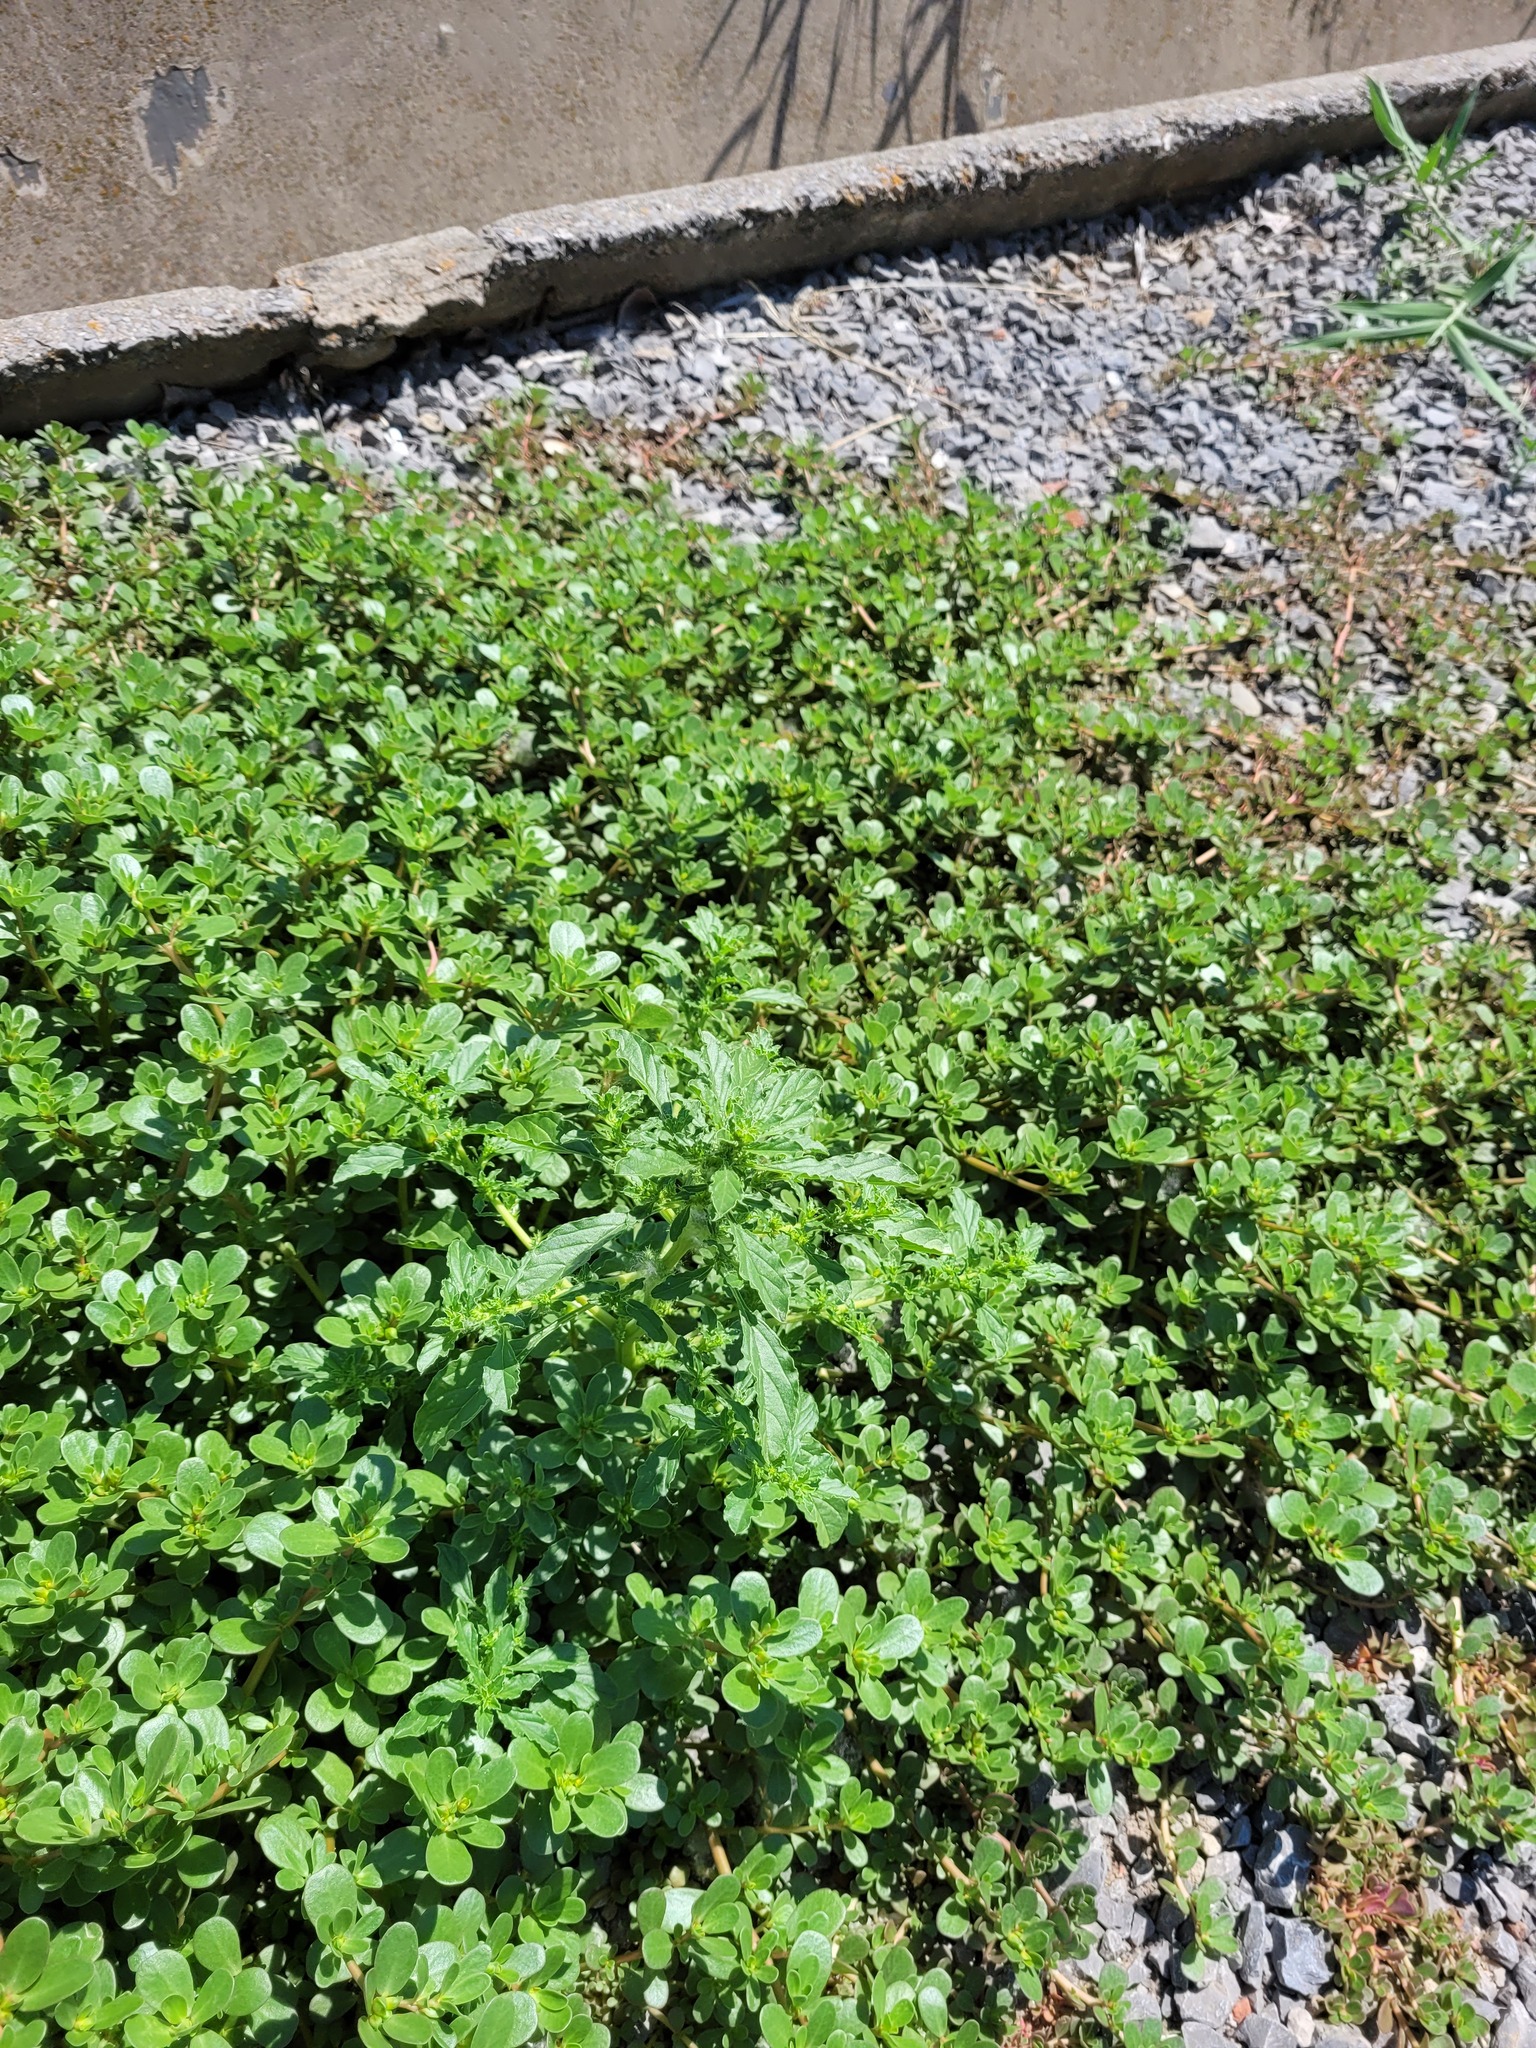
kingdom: Plantae
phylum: Tracheophyta
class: Magnoliopsida
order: Caryophyllales
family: Amaranthaceae
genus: Amaranthus
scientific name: Amaranthus albus
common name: White pigweed
